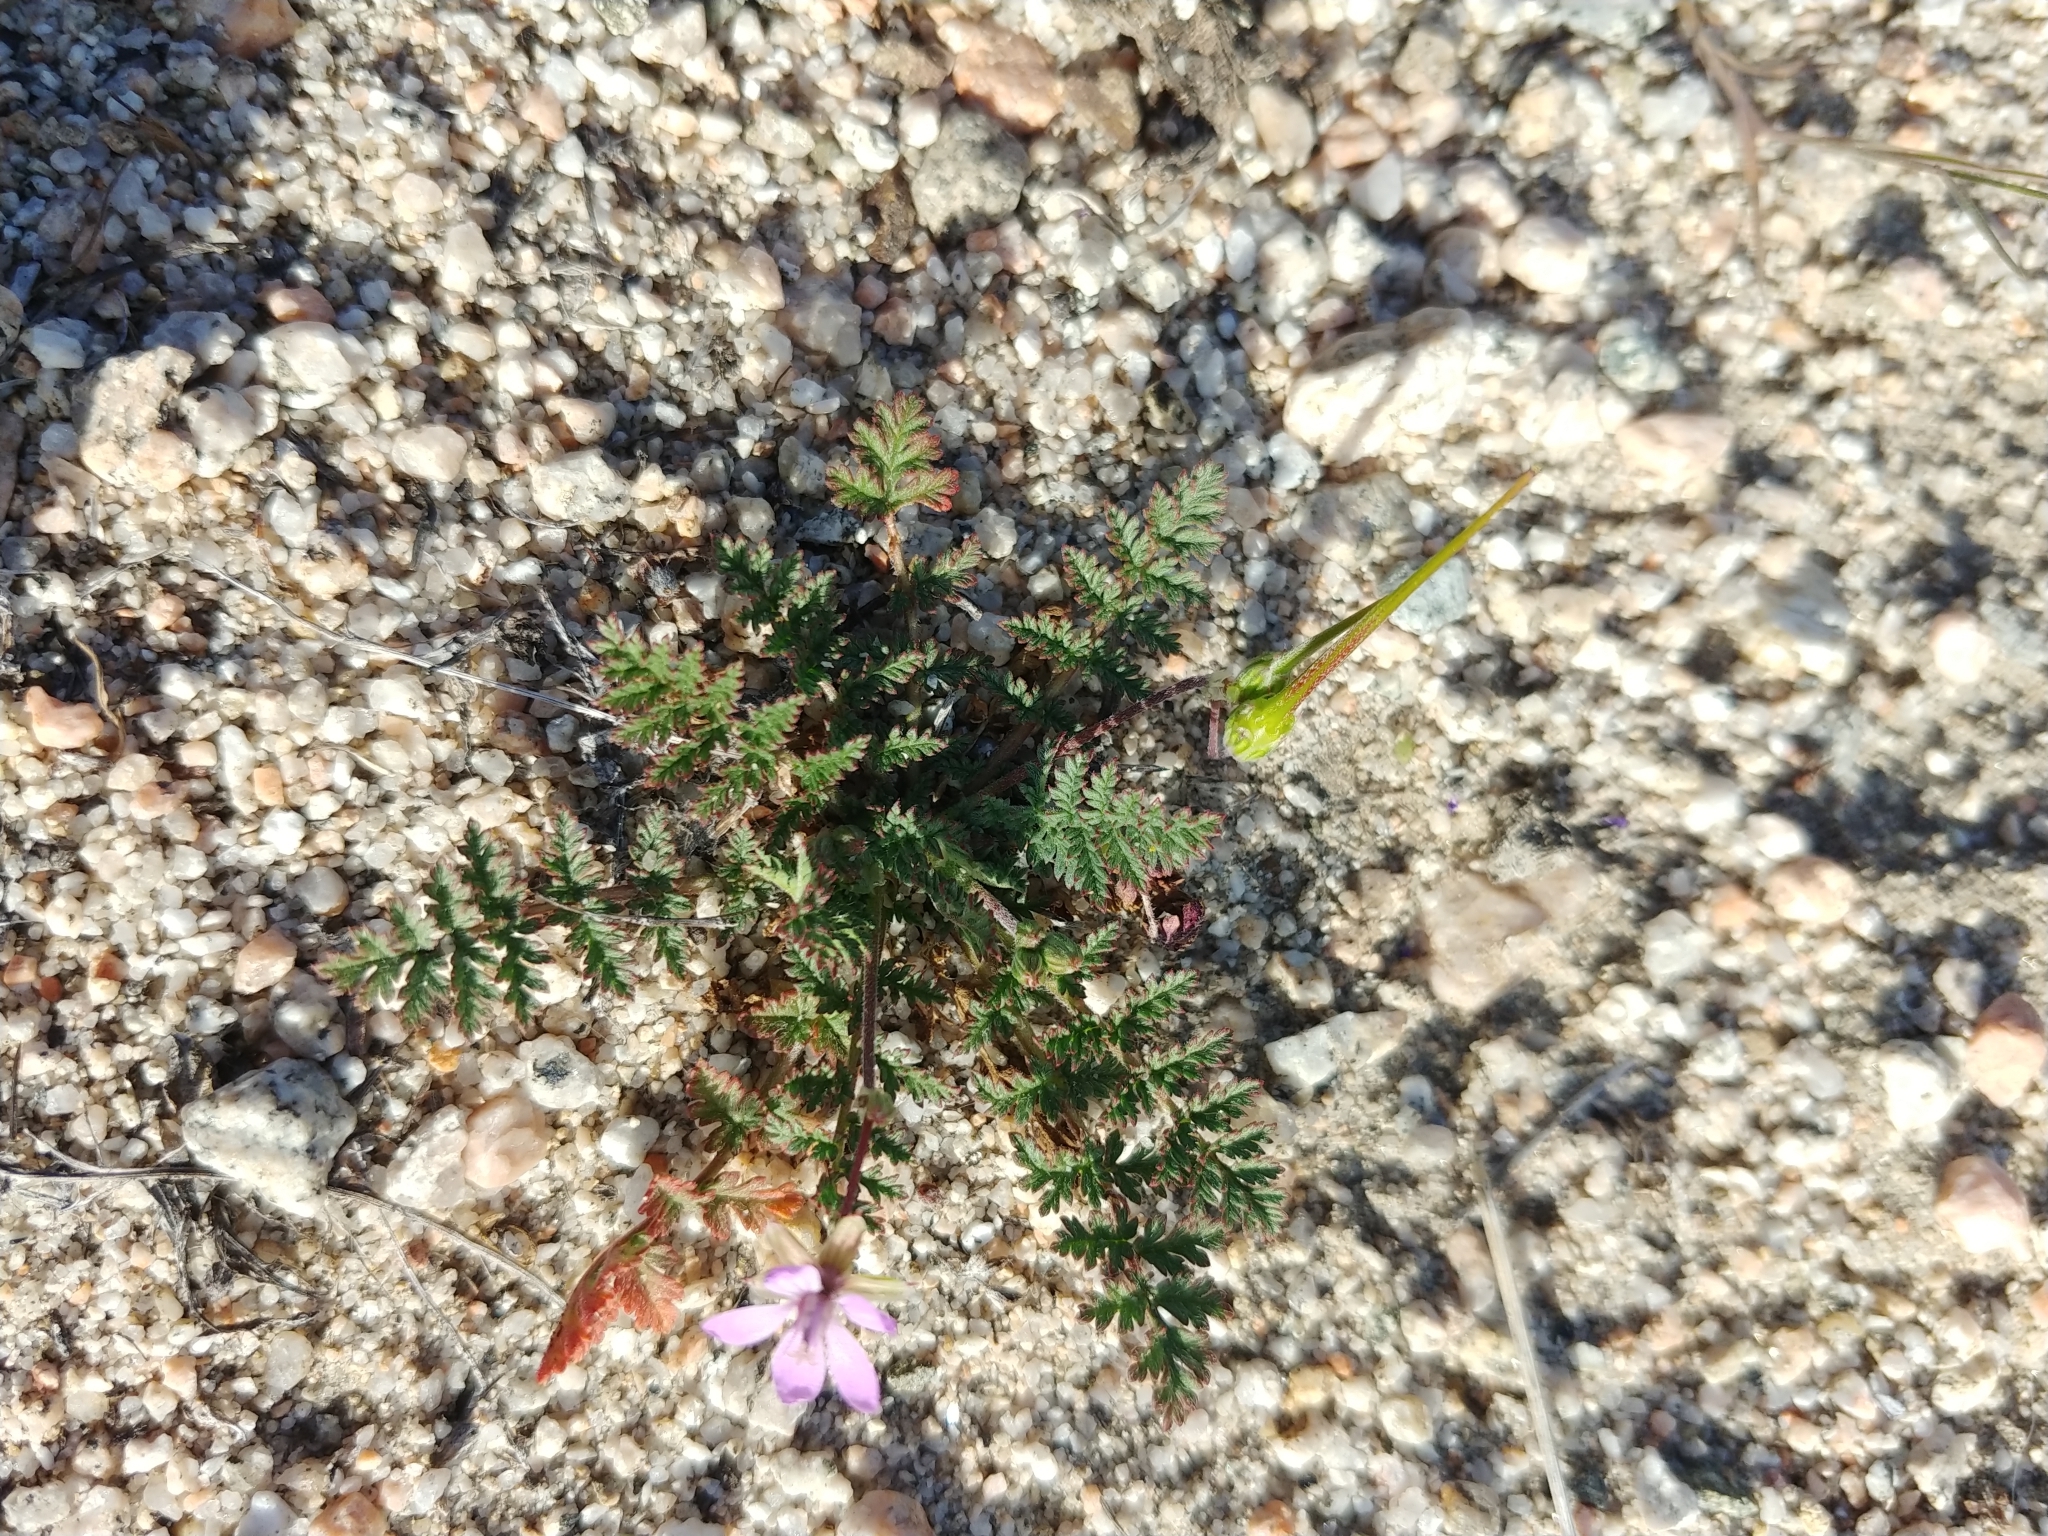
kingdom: Plantae
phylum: Tracheophyta
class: Magnoliopsida
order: Geraniales
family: Geraniaceae
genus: Erodium
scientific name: Erodium cicutarium
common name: Common stork's-bill
